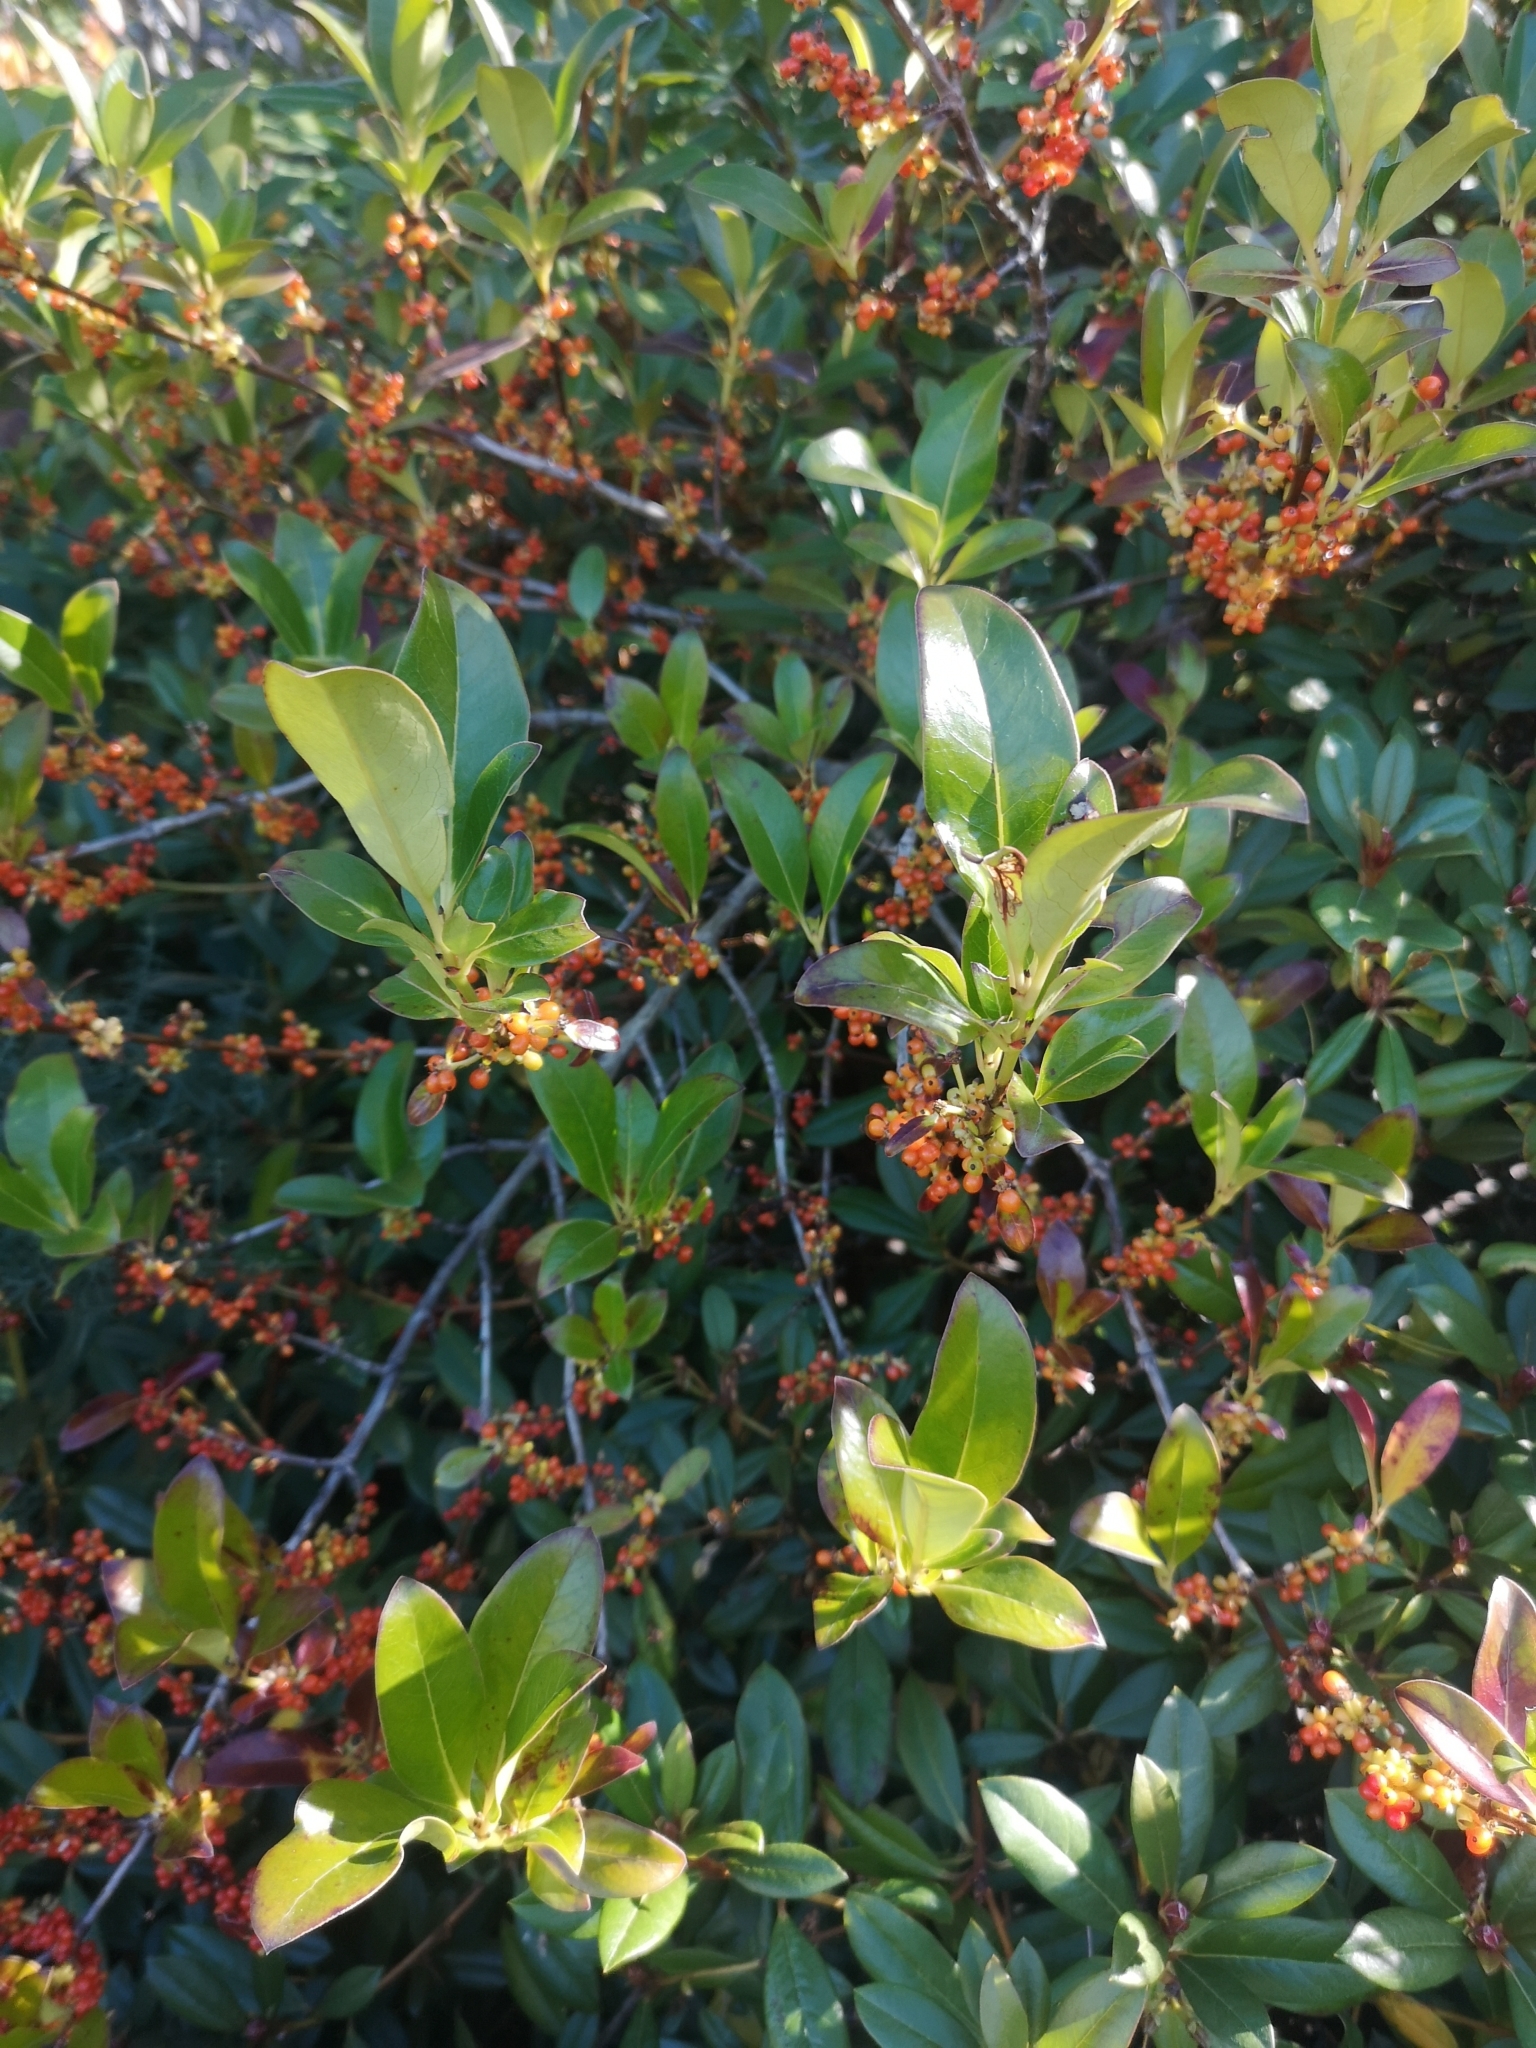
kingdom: Plantae
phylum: Tracheophyta
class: Magnoliopsida
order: Gentianales
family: Rubiaceae
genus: Coprosma
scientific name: Coprosma robusta
